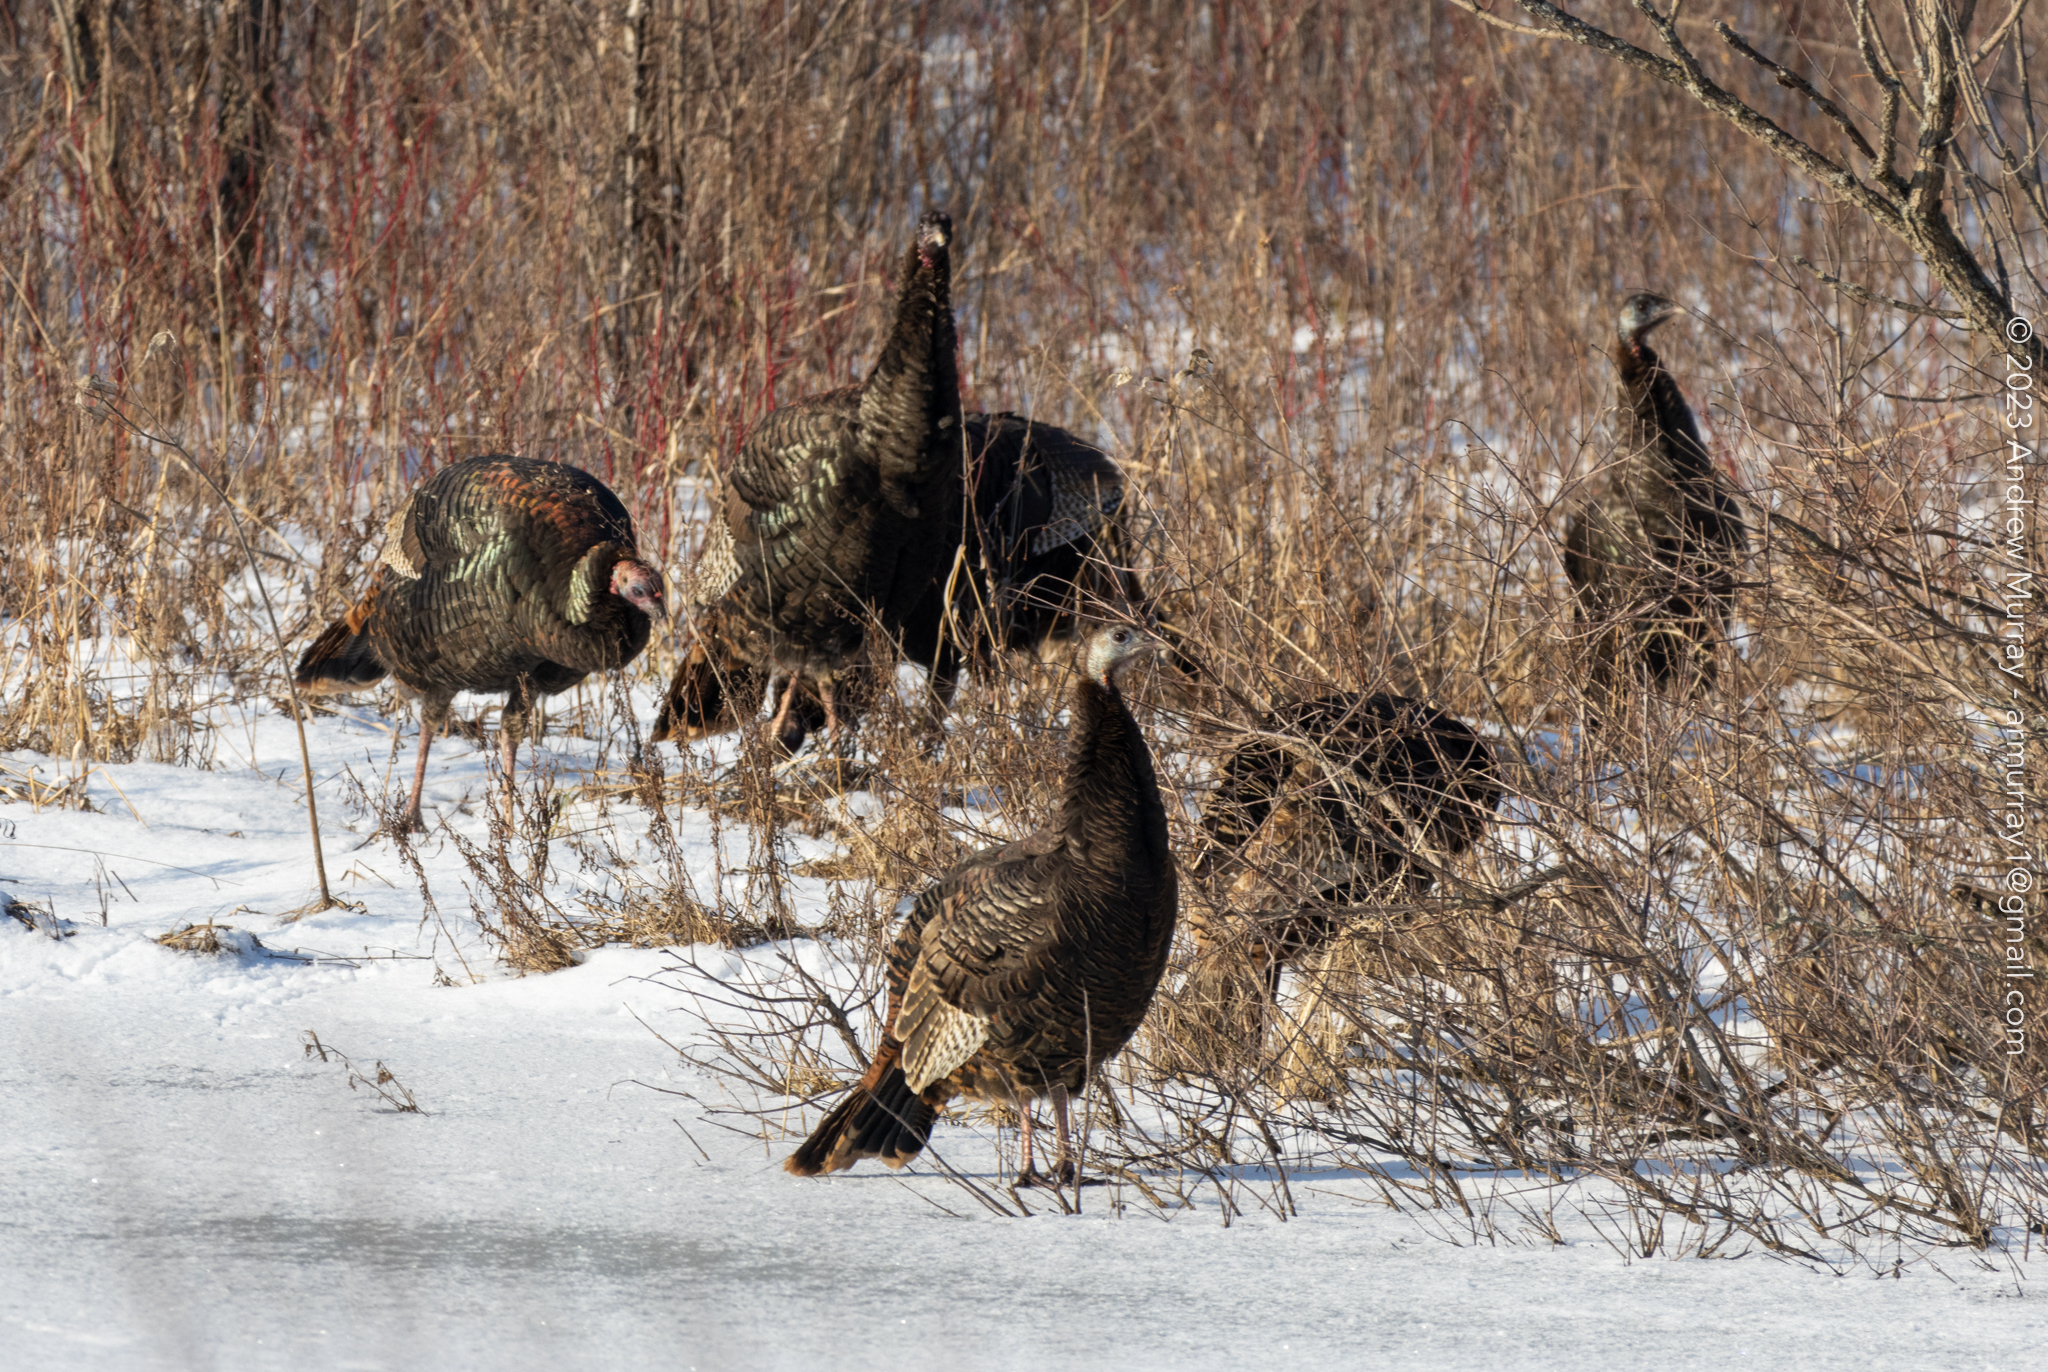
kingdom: Animalia
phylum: Chordata
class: Aves
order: Galliformes
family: Phasianidae
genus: Meleagris
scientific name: Meleagris gallopavo
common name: Wild turkey
